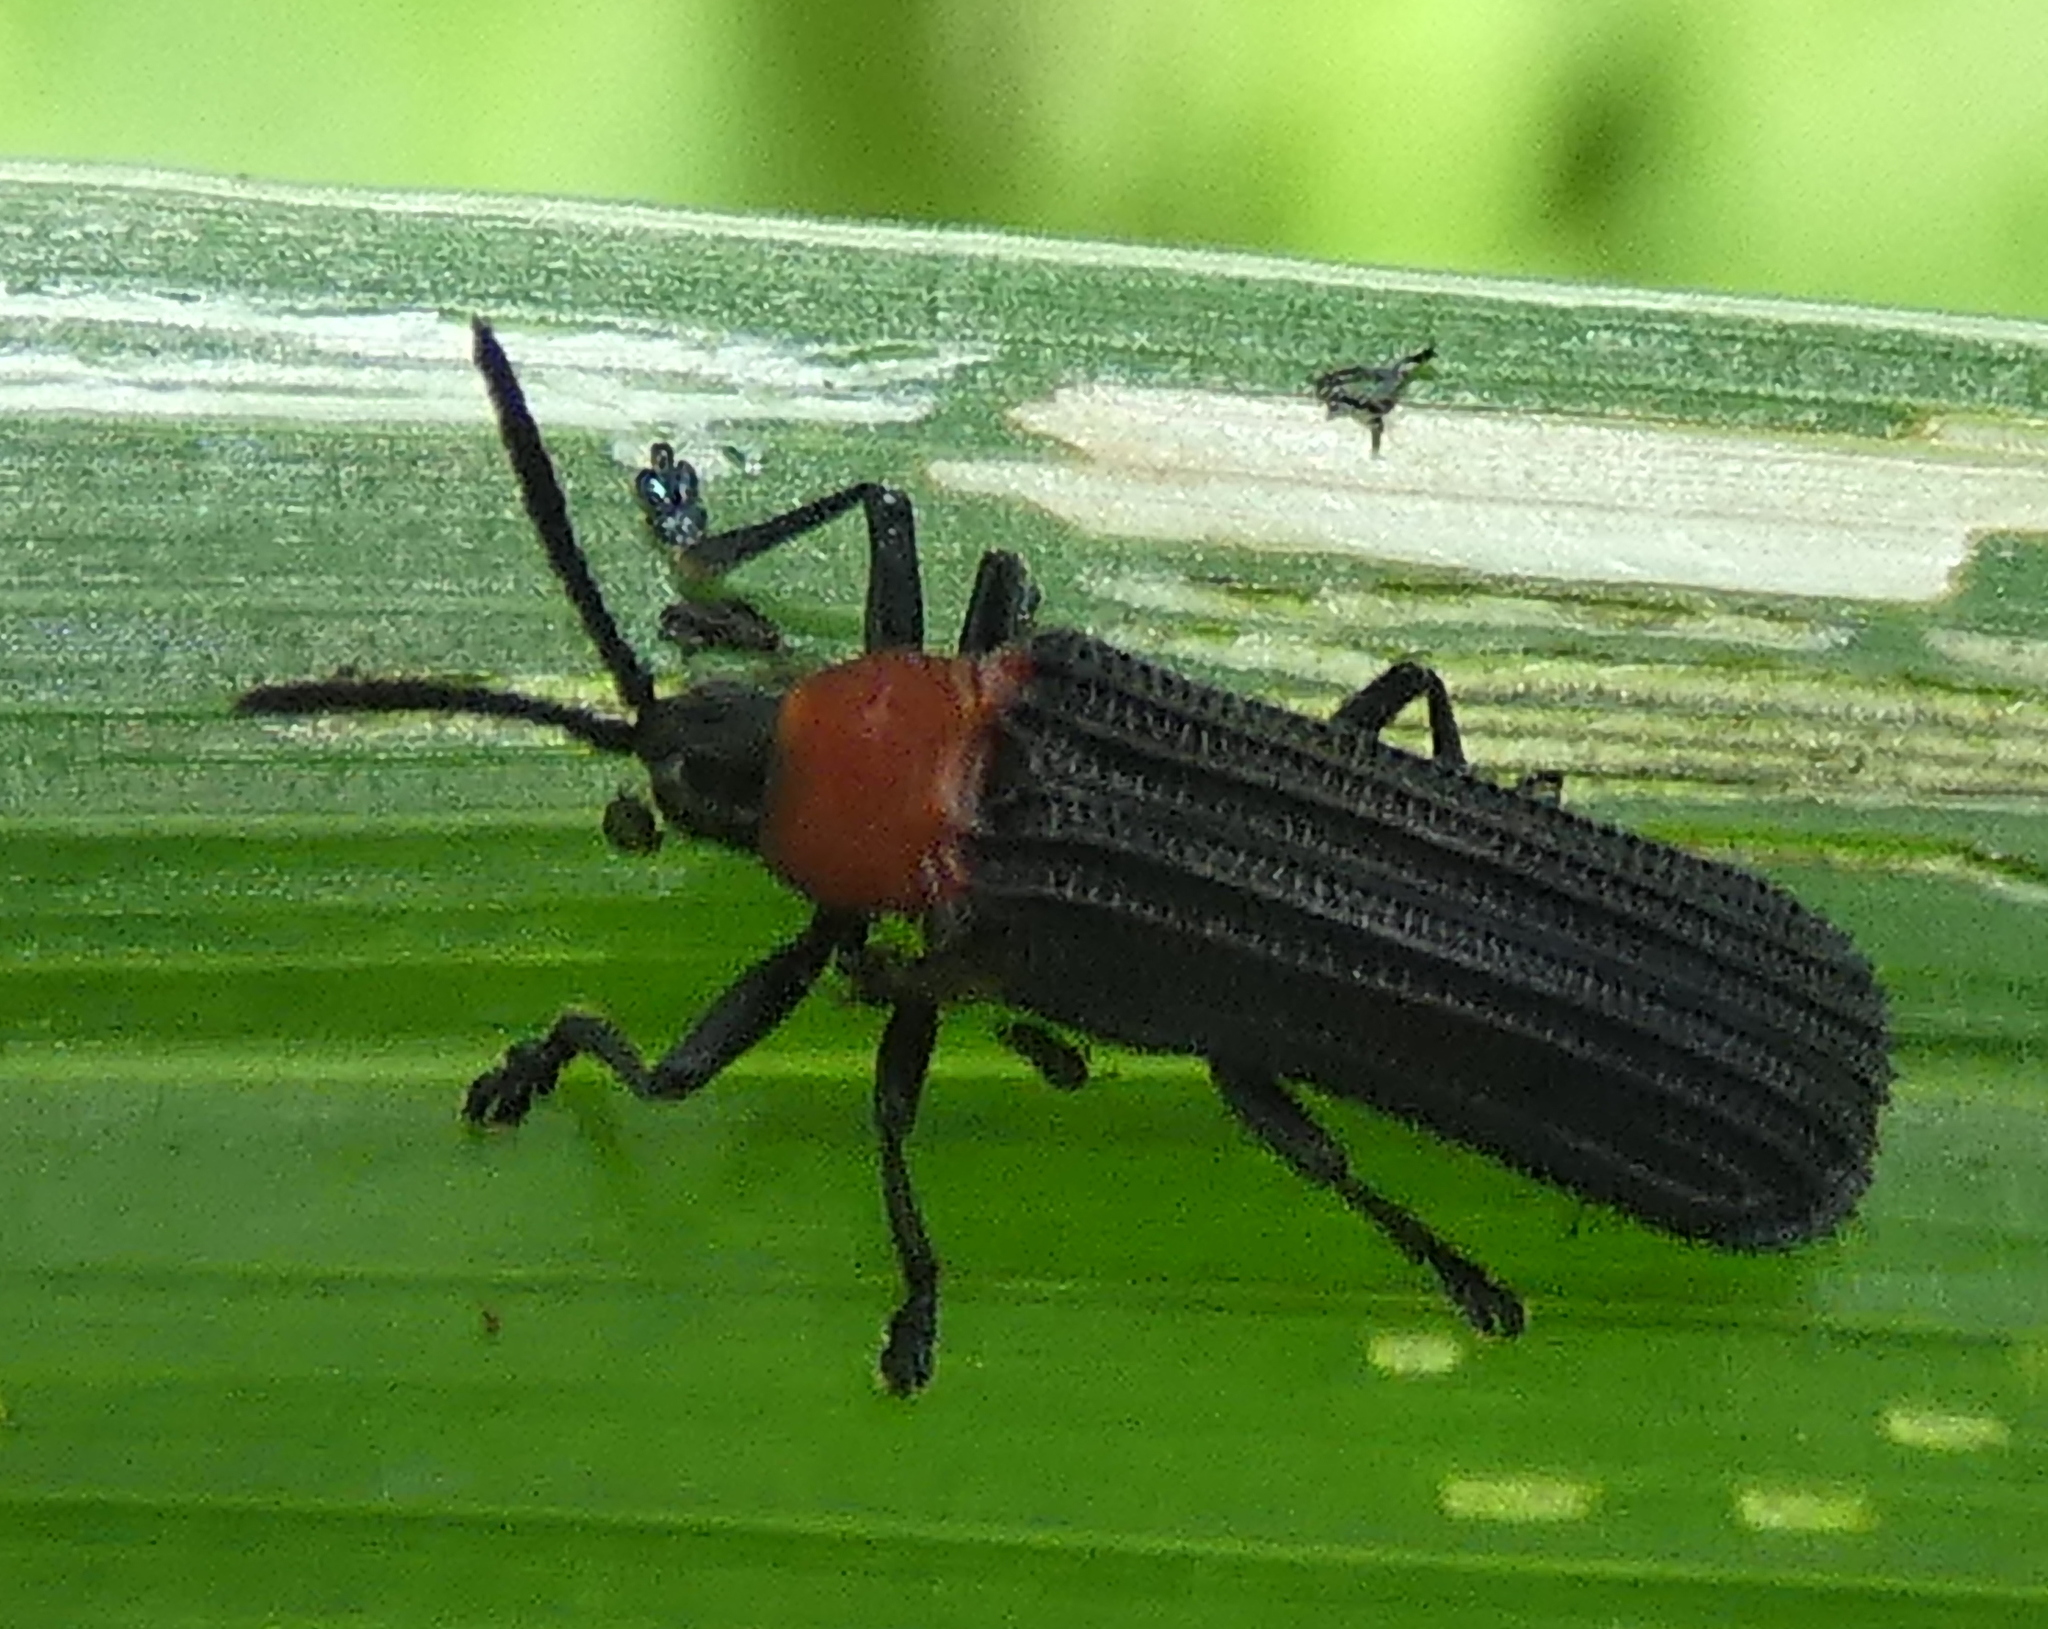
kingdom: Animalia
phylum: Arthropoda
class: Insecta
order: Coleoptera
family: Chrysomelidae
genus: Chalepus
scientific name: Chalepus notula
